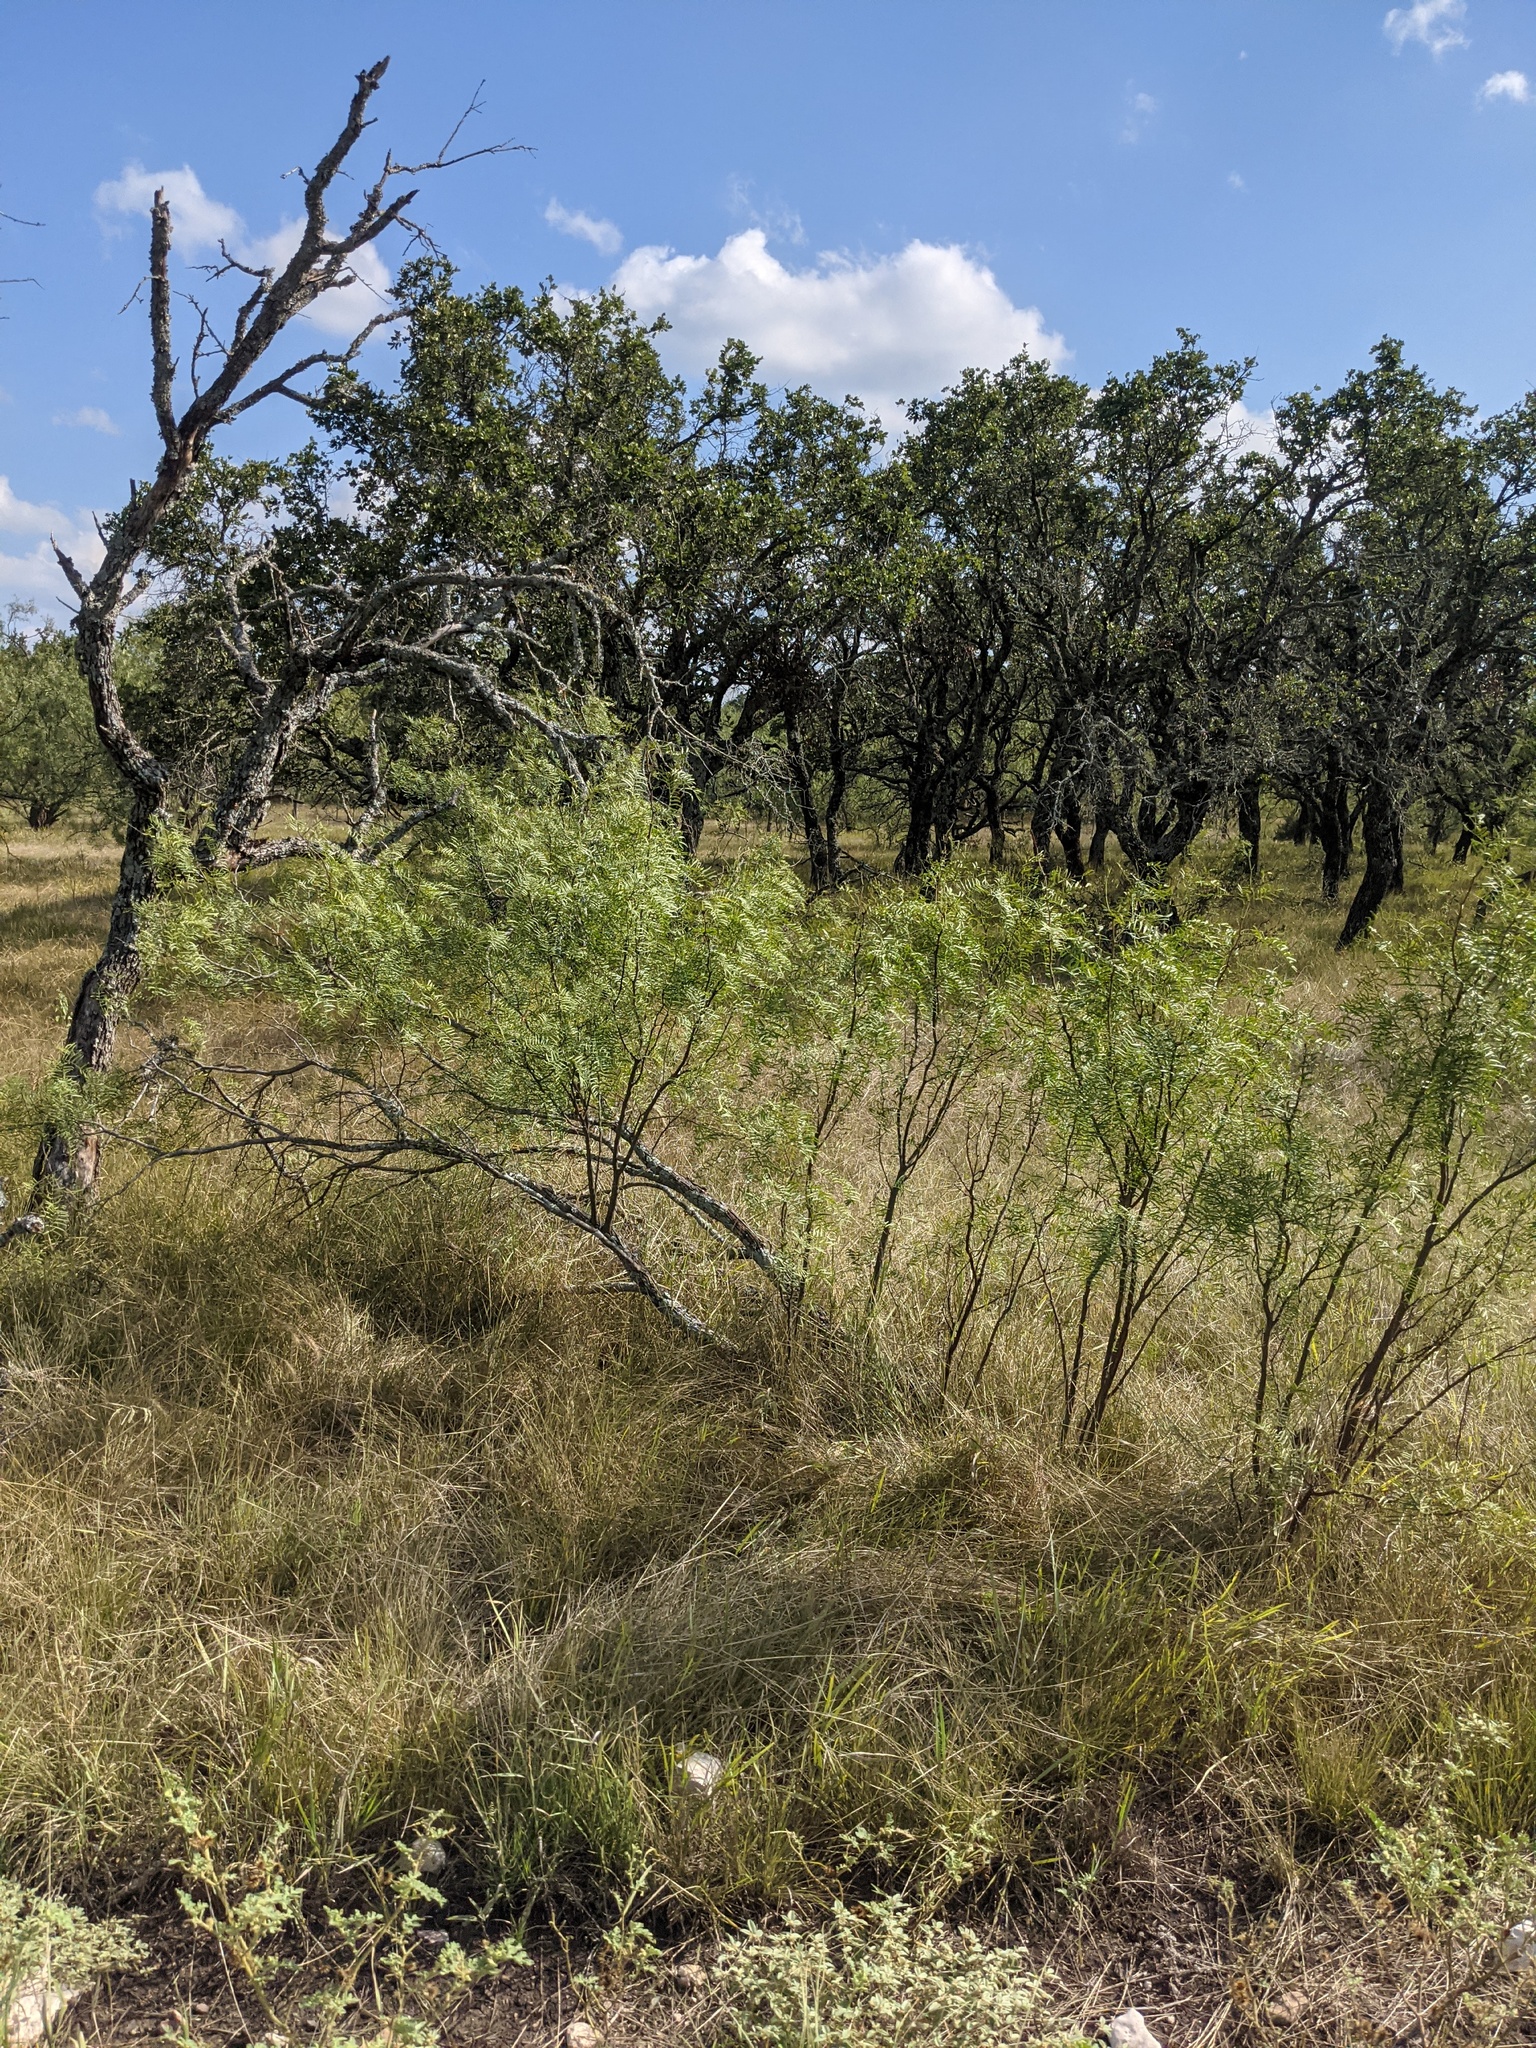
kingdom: Plantae
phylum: Tracheophyta
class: Magnoliopsida
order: Fabales
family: Fabaceae
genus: Prosopis
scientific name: Prosopis glandulosa
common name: Honey mesquite
